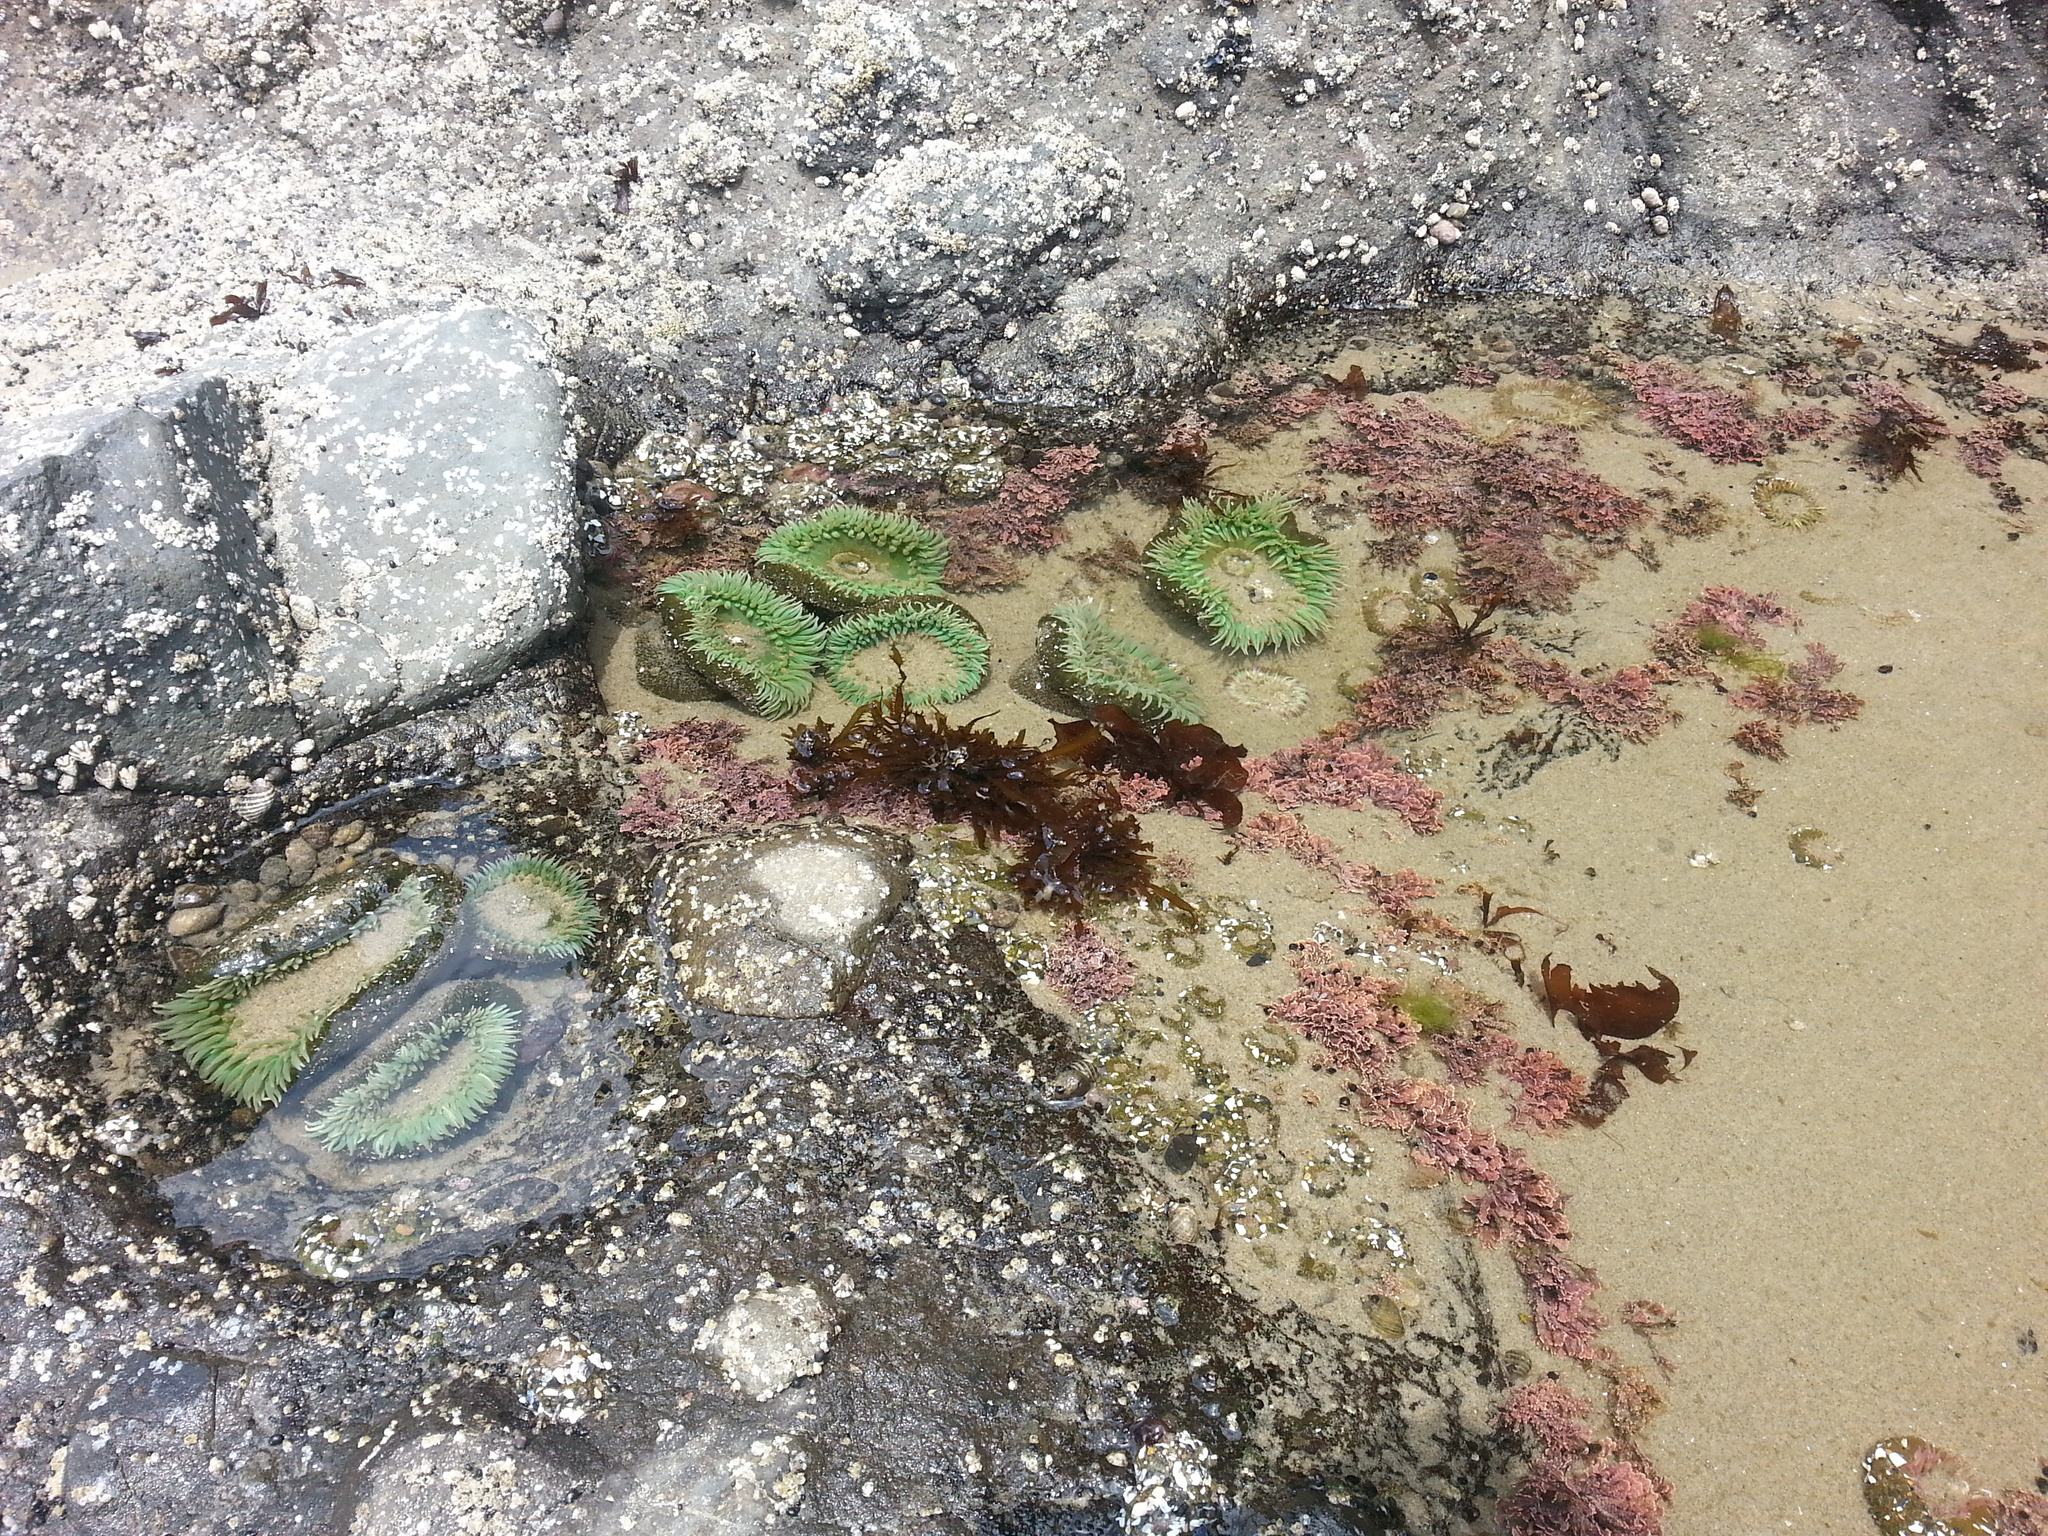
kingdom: Animalia
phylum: Cnidaria
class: Anthozoa
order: Actiniaria
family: Actiniidae
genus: Anthopleura
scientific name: Anthopleura xanthogrammica
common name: Giant green anemone
